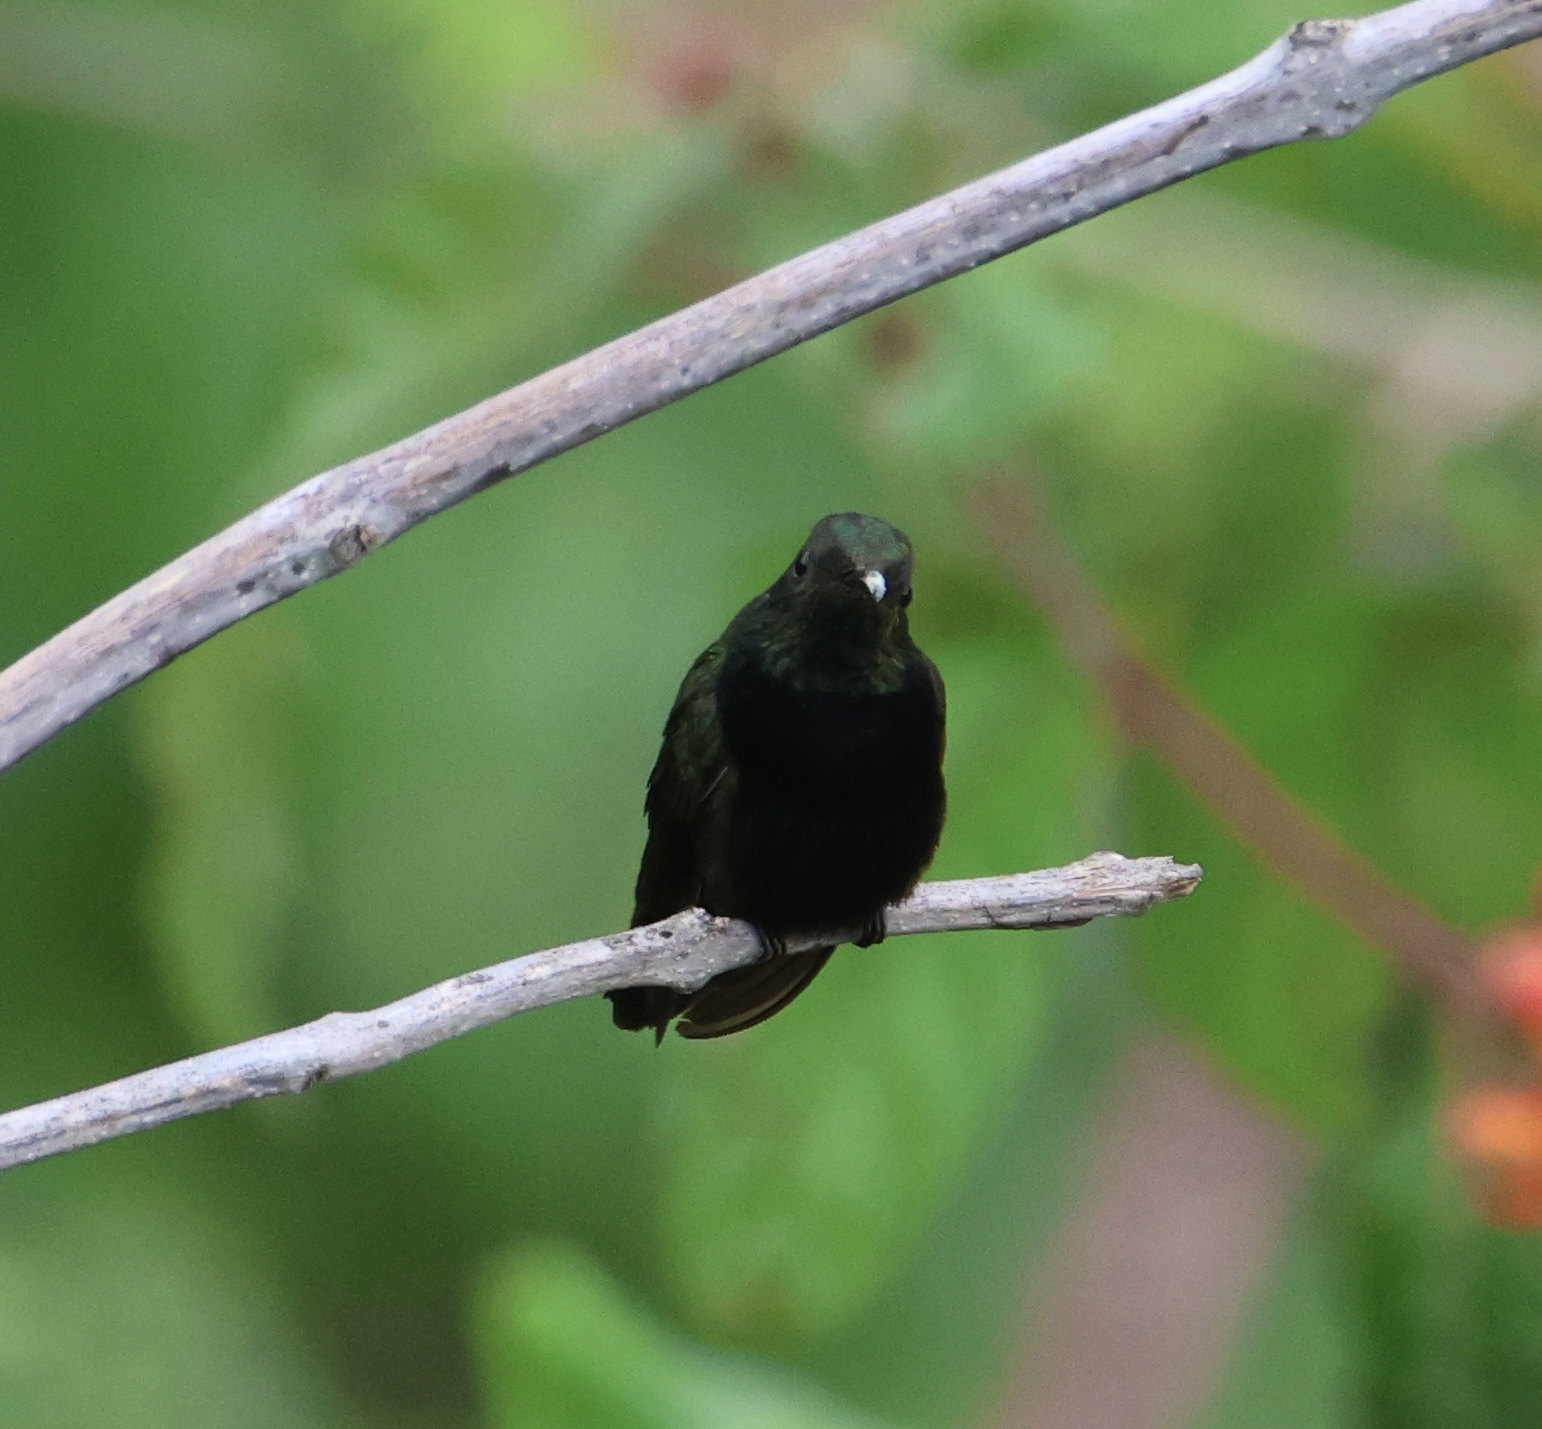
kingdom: Animalia
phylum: Chordata
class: Aves
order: Apodiformes
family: Trochilidae
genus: Anthracothorax
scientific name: Anthracothorax dominicus
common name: Antillean mango
